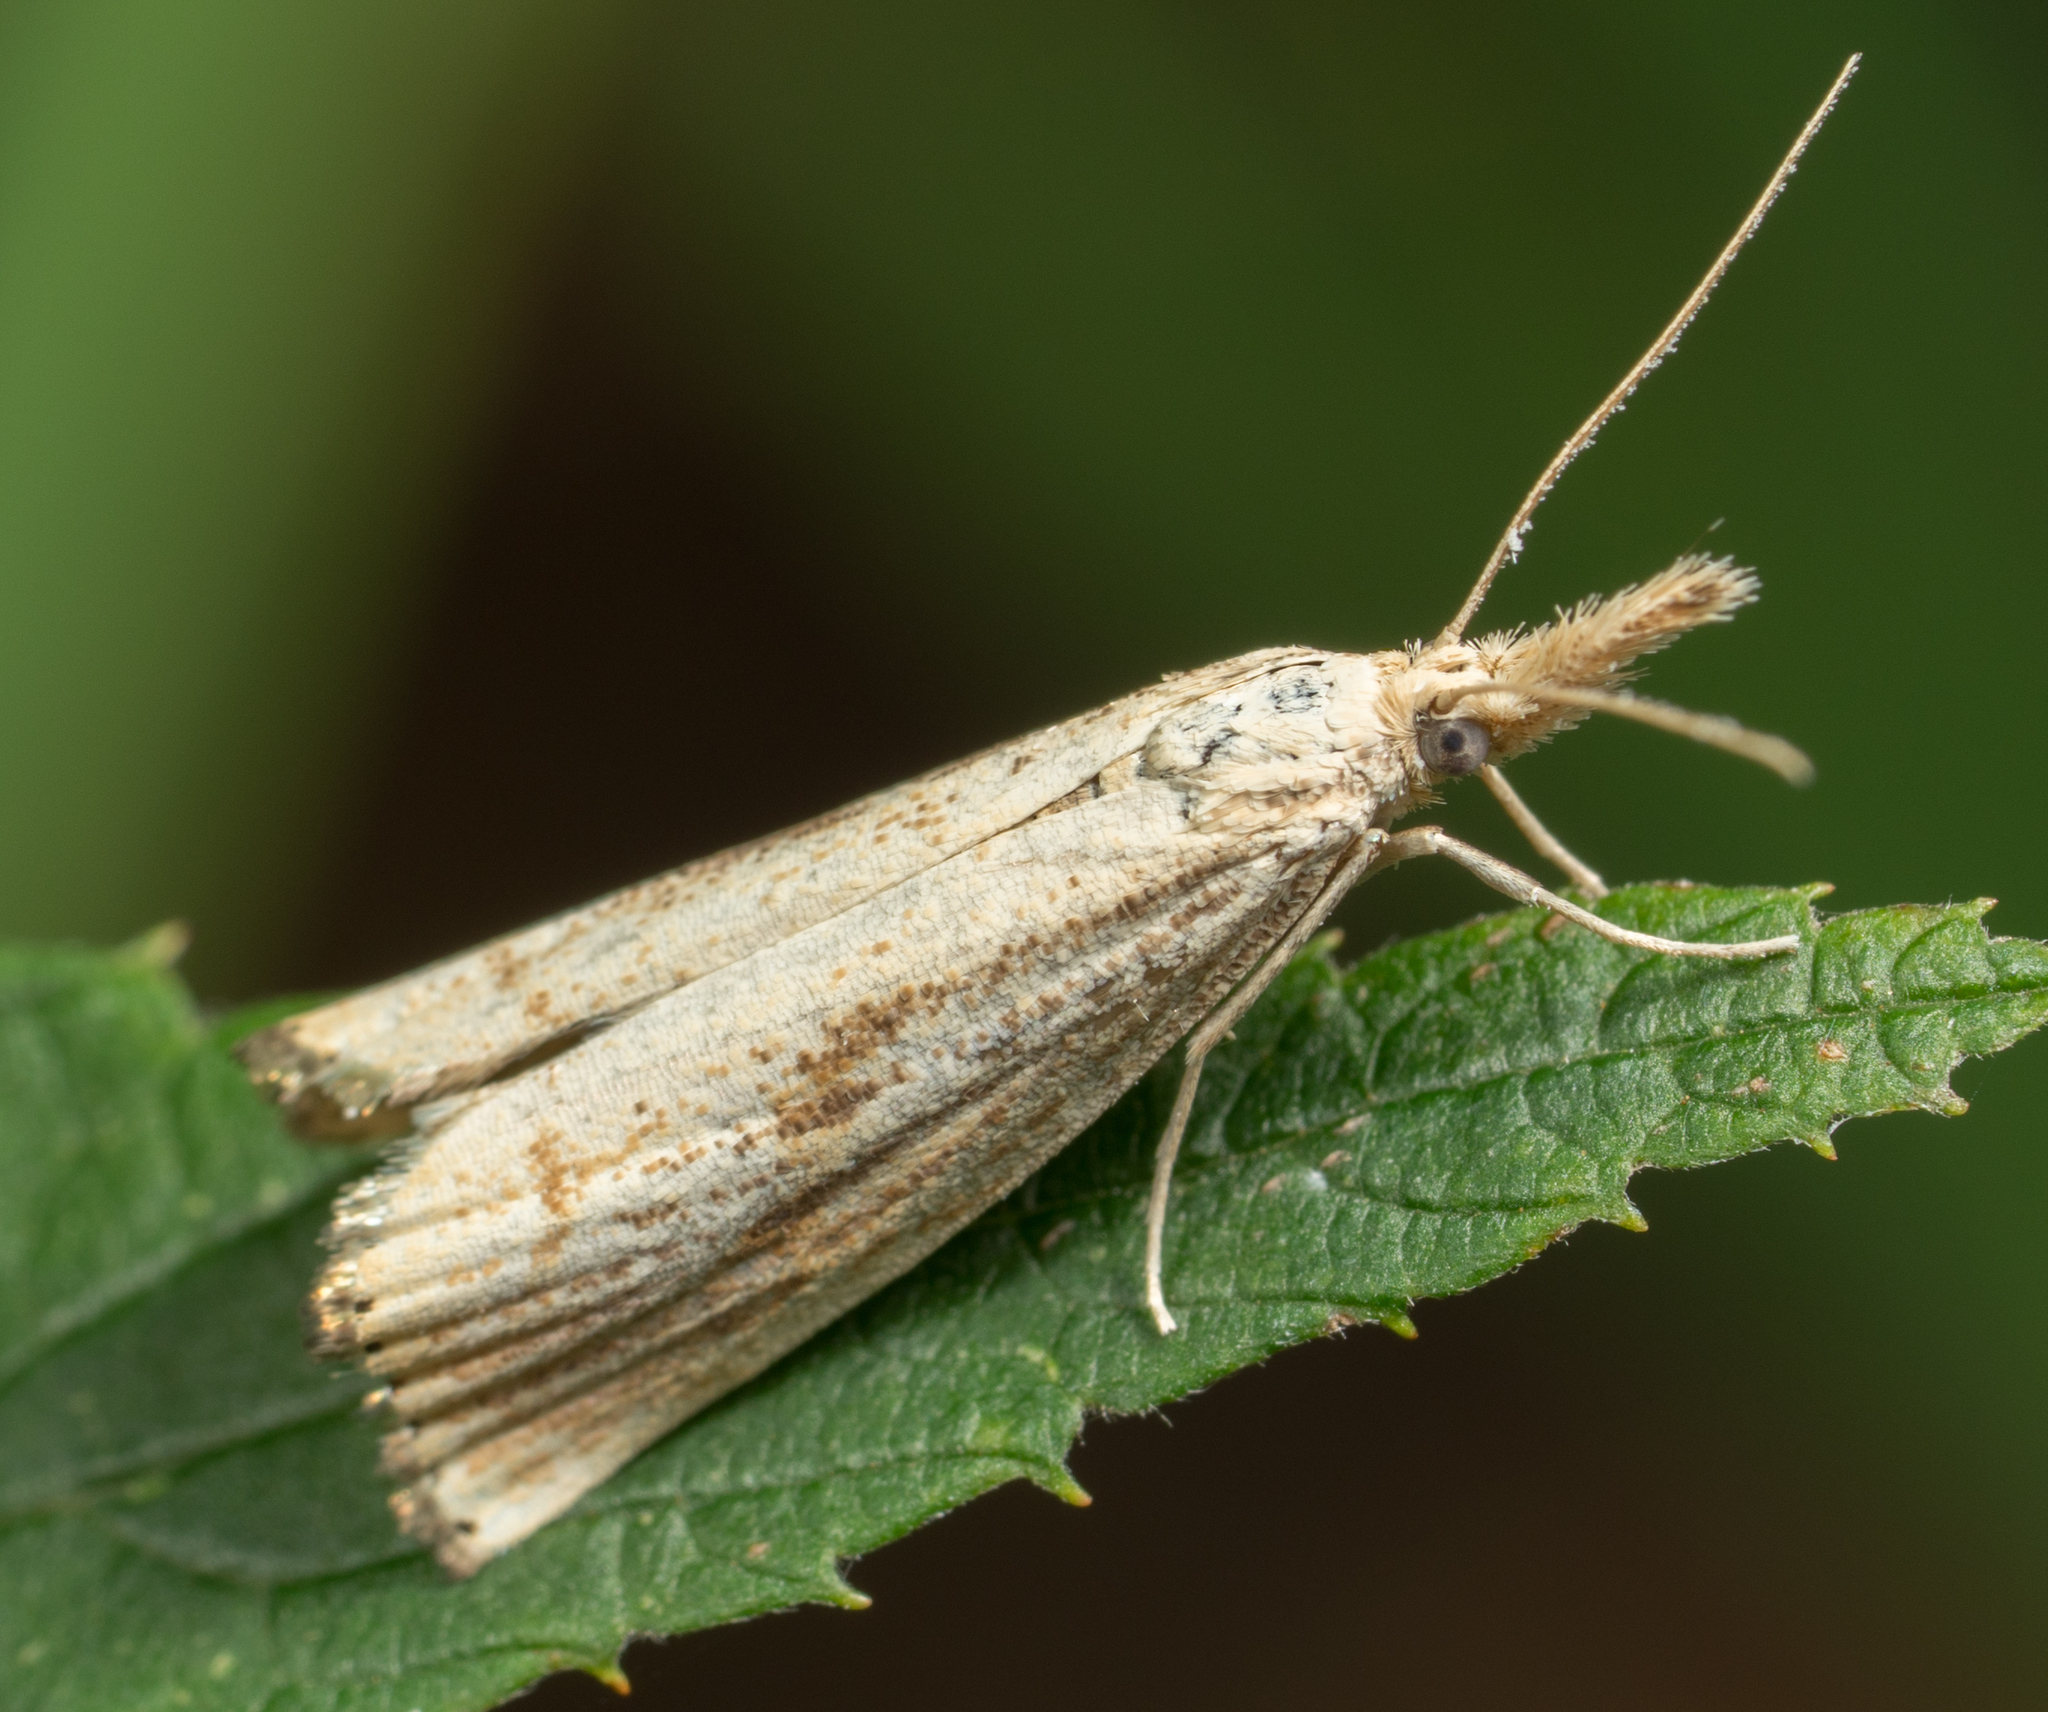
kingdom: Animalia
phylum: Arthropoda
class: Insecta
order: Lepidoptera
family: Crambidae
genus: Agriphila
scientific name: Agriphila ruricolellus
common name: Lesser vagabond sod webworm
